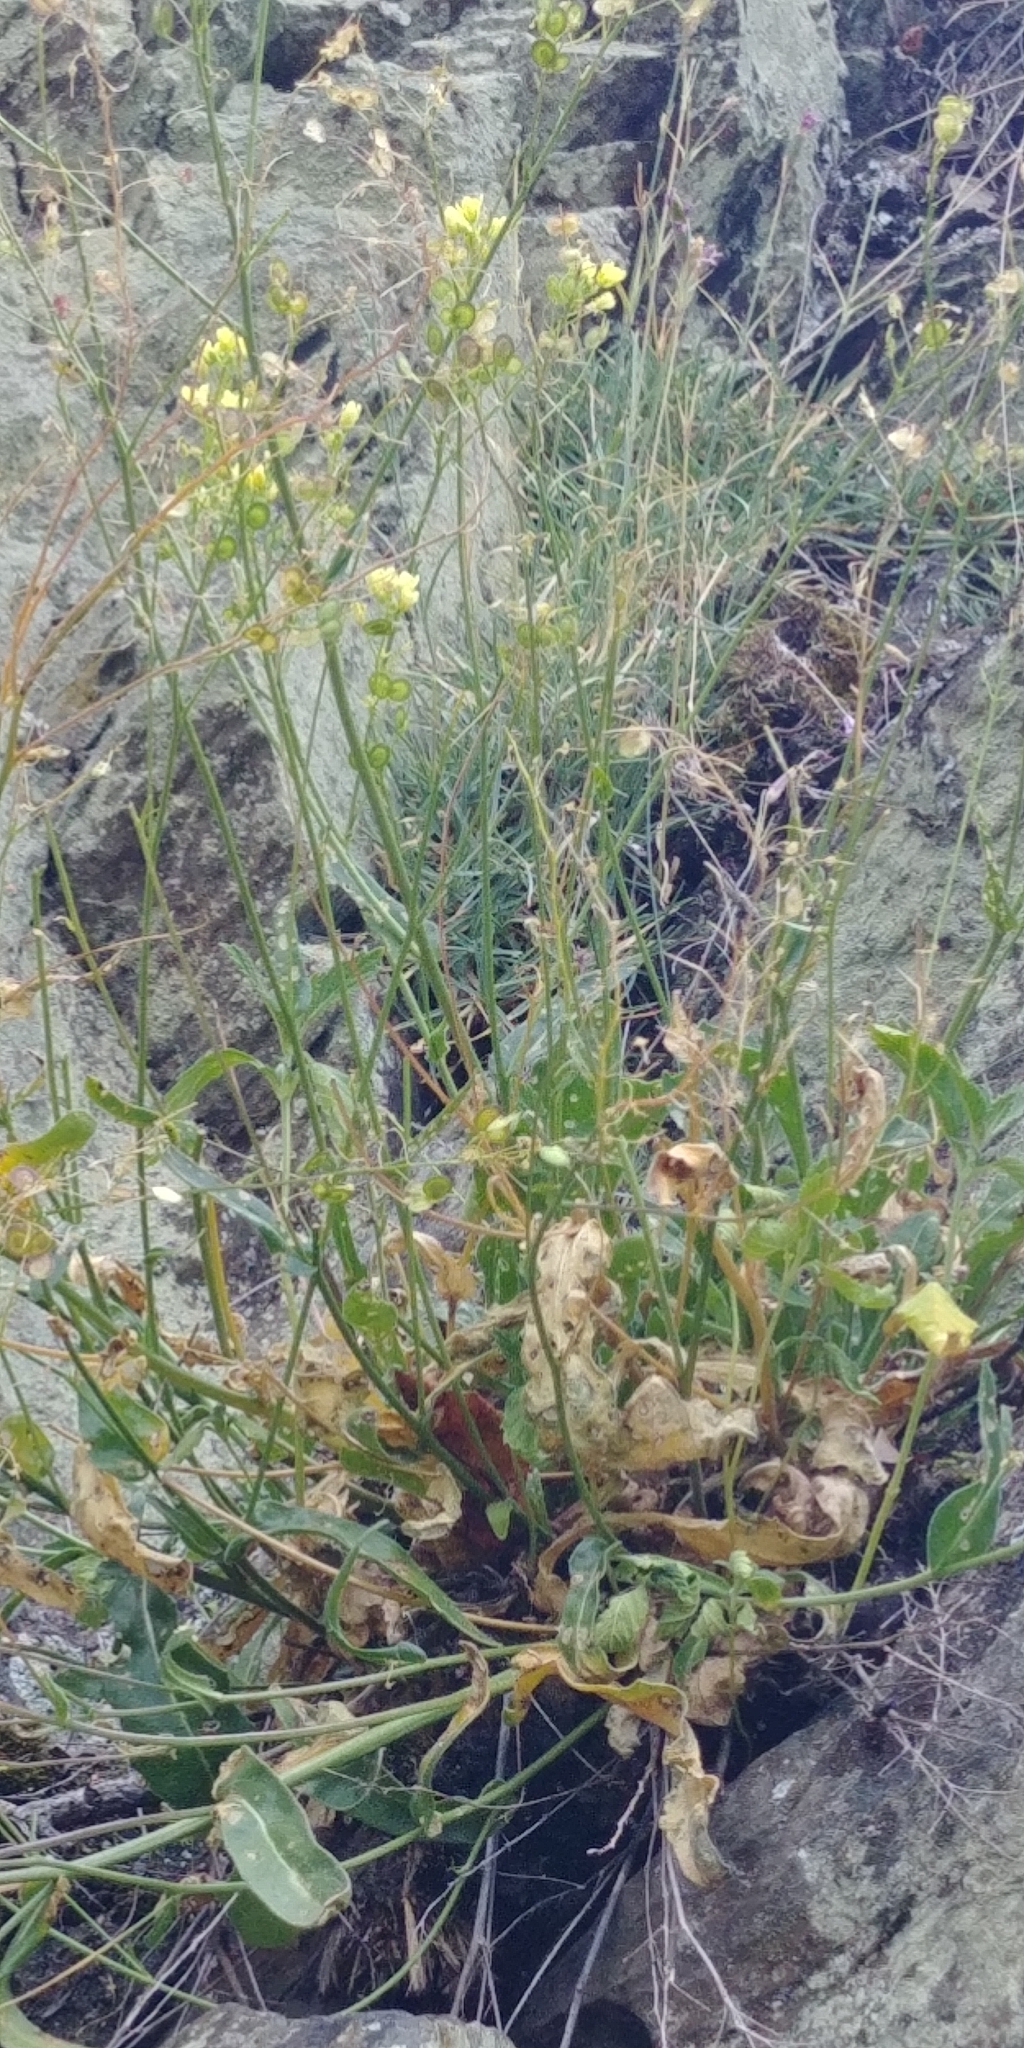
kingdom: Plantae
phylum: Tracheophyta
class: Magnoliopsida
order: Brassicales
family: Brassicaceae
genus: Biscutella
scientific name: Biscutella laevigata
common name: Buckler mustard
